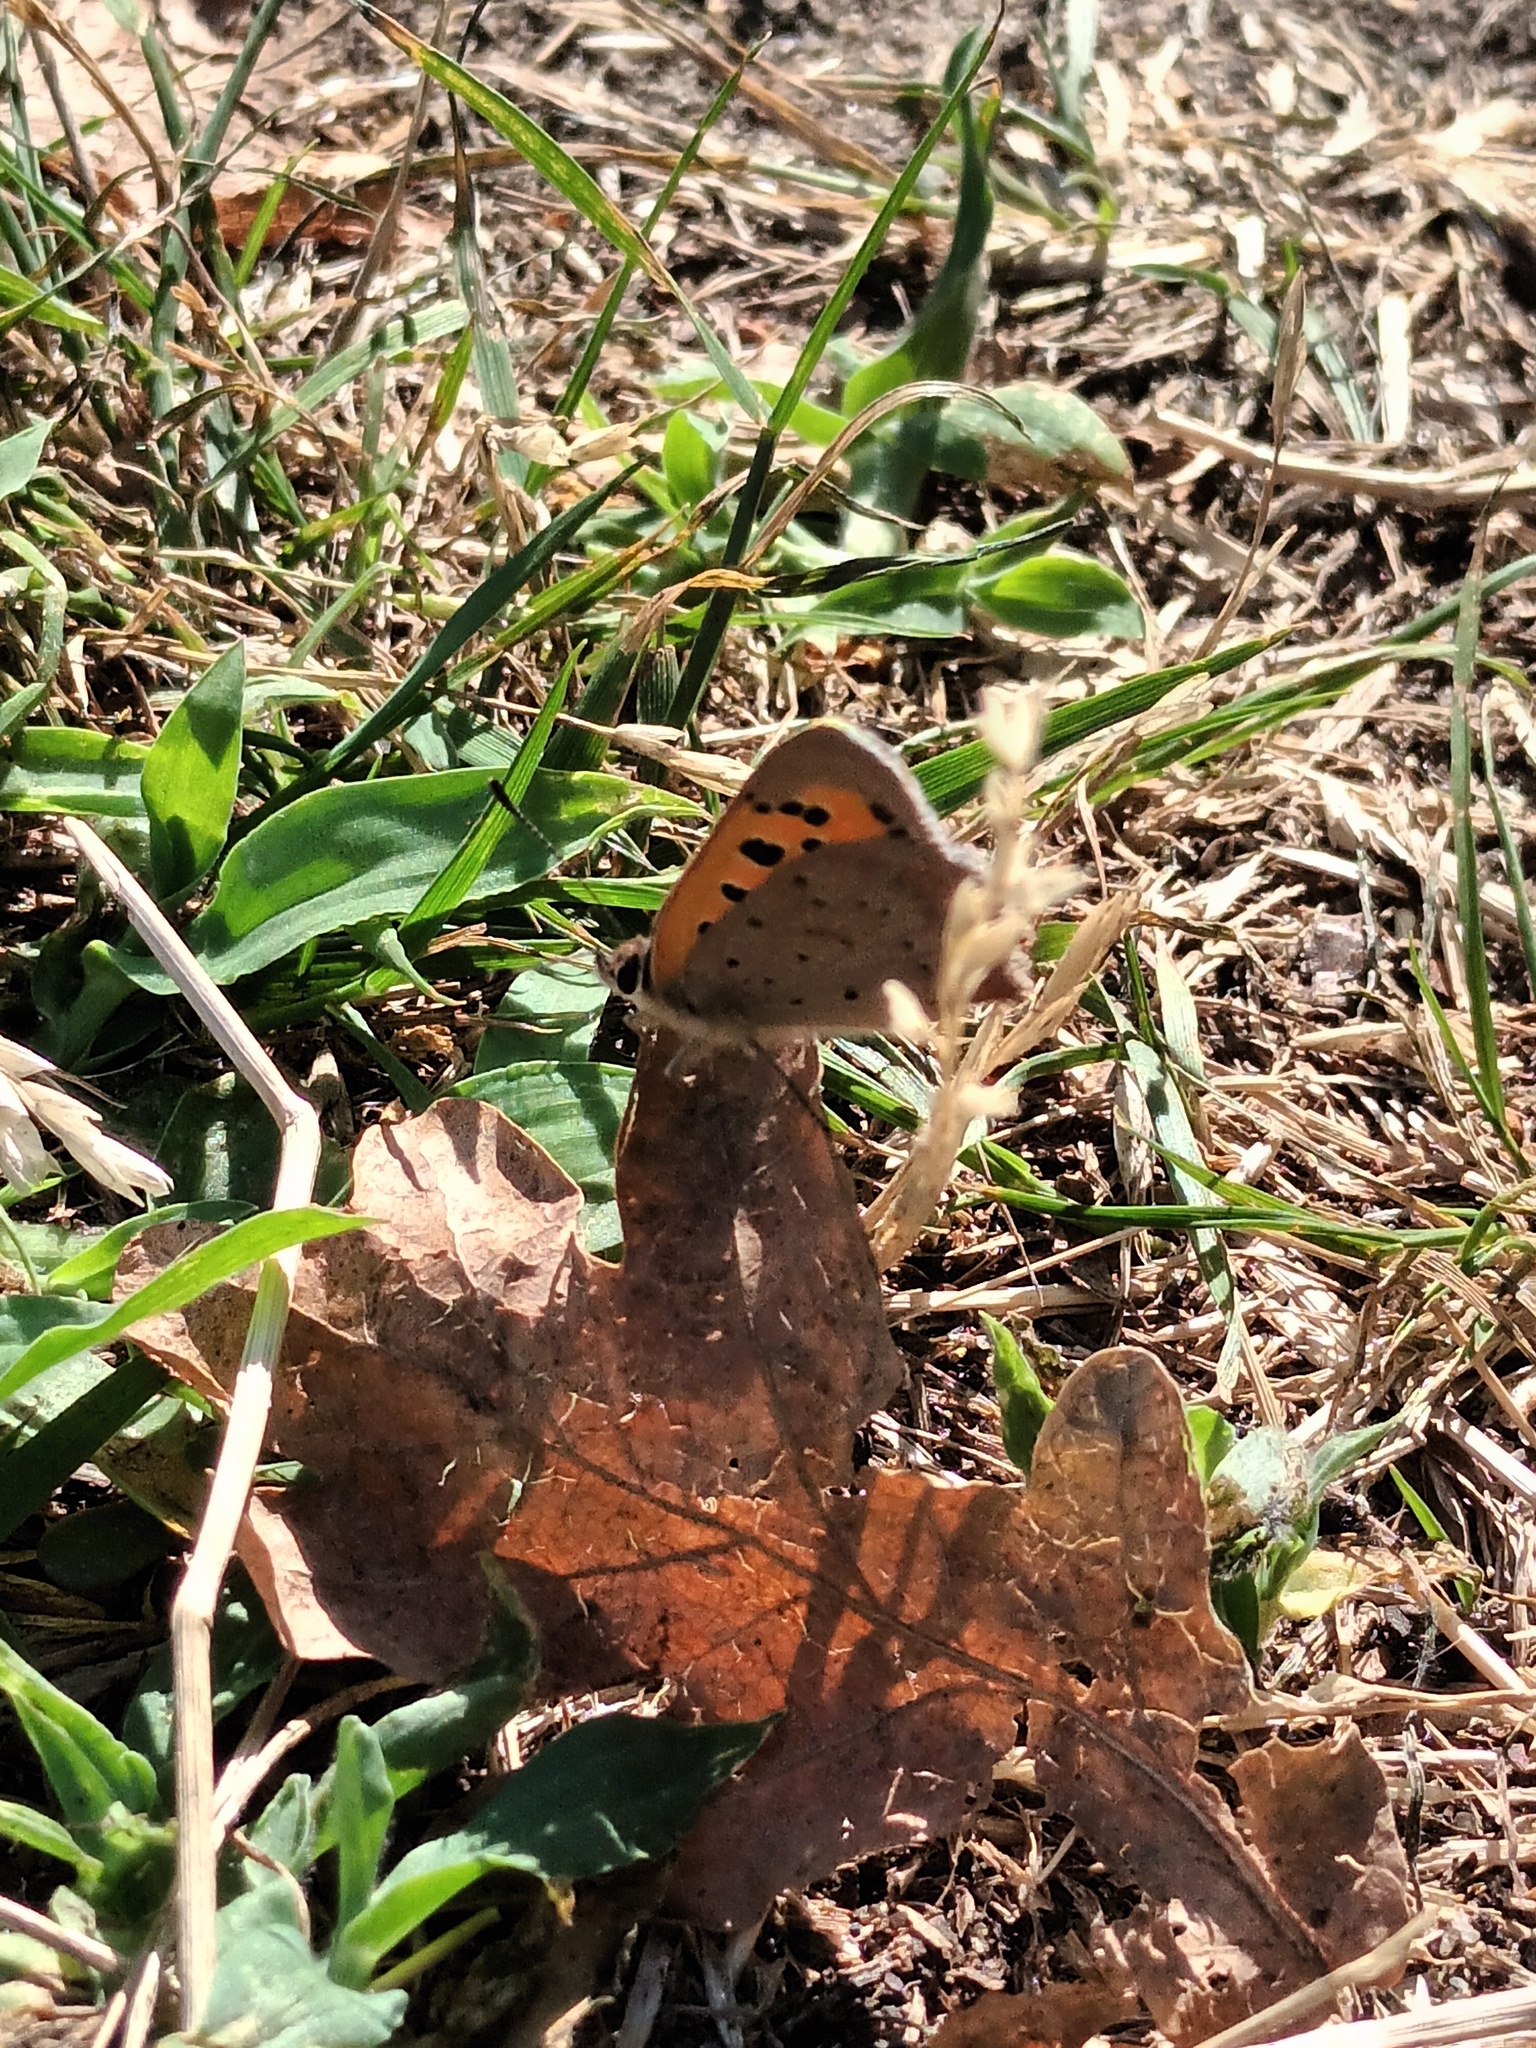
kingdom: Animalia
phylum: Arthropoda
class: Insecta
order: Lepidoptera
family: Lycaenidae
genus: Lycaena
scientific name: Lycaena phlaeas
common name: Small copper
